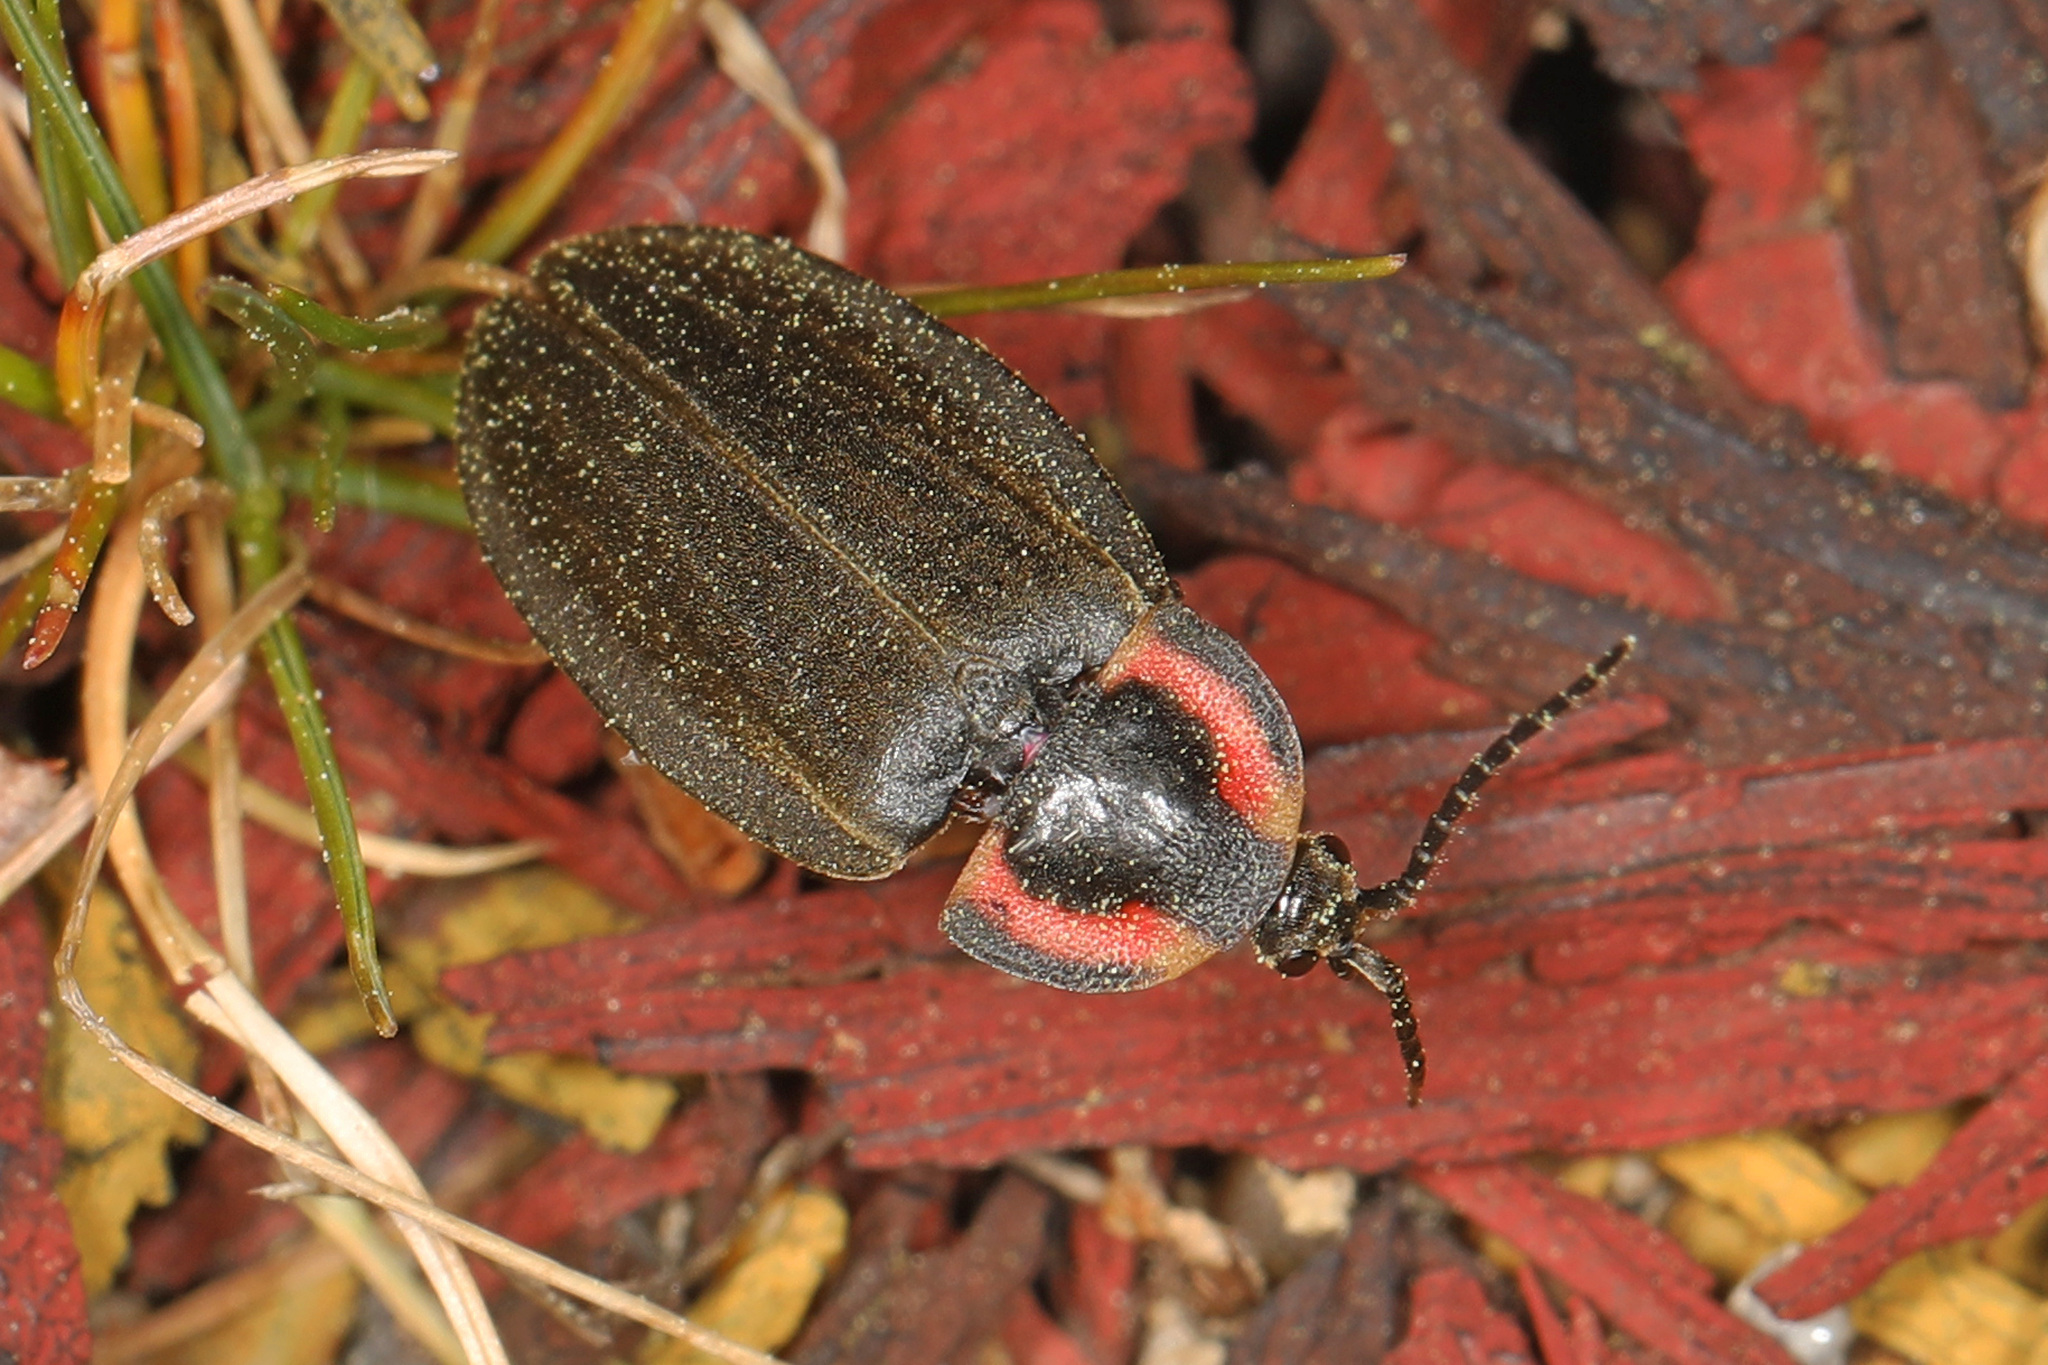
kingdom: Animalia
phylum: Arthropoda
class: Insecta
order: Coleoptera
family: Lampyridae
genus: Photinus
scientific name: Photinus corrusca
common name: Winter firefly
